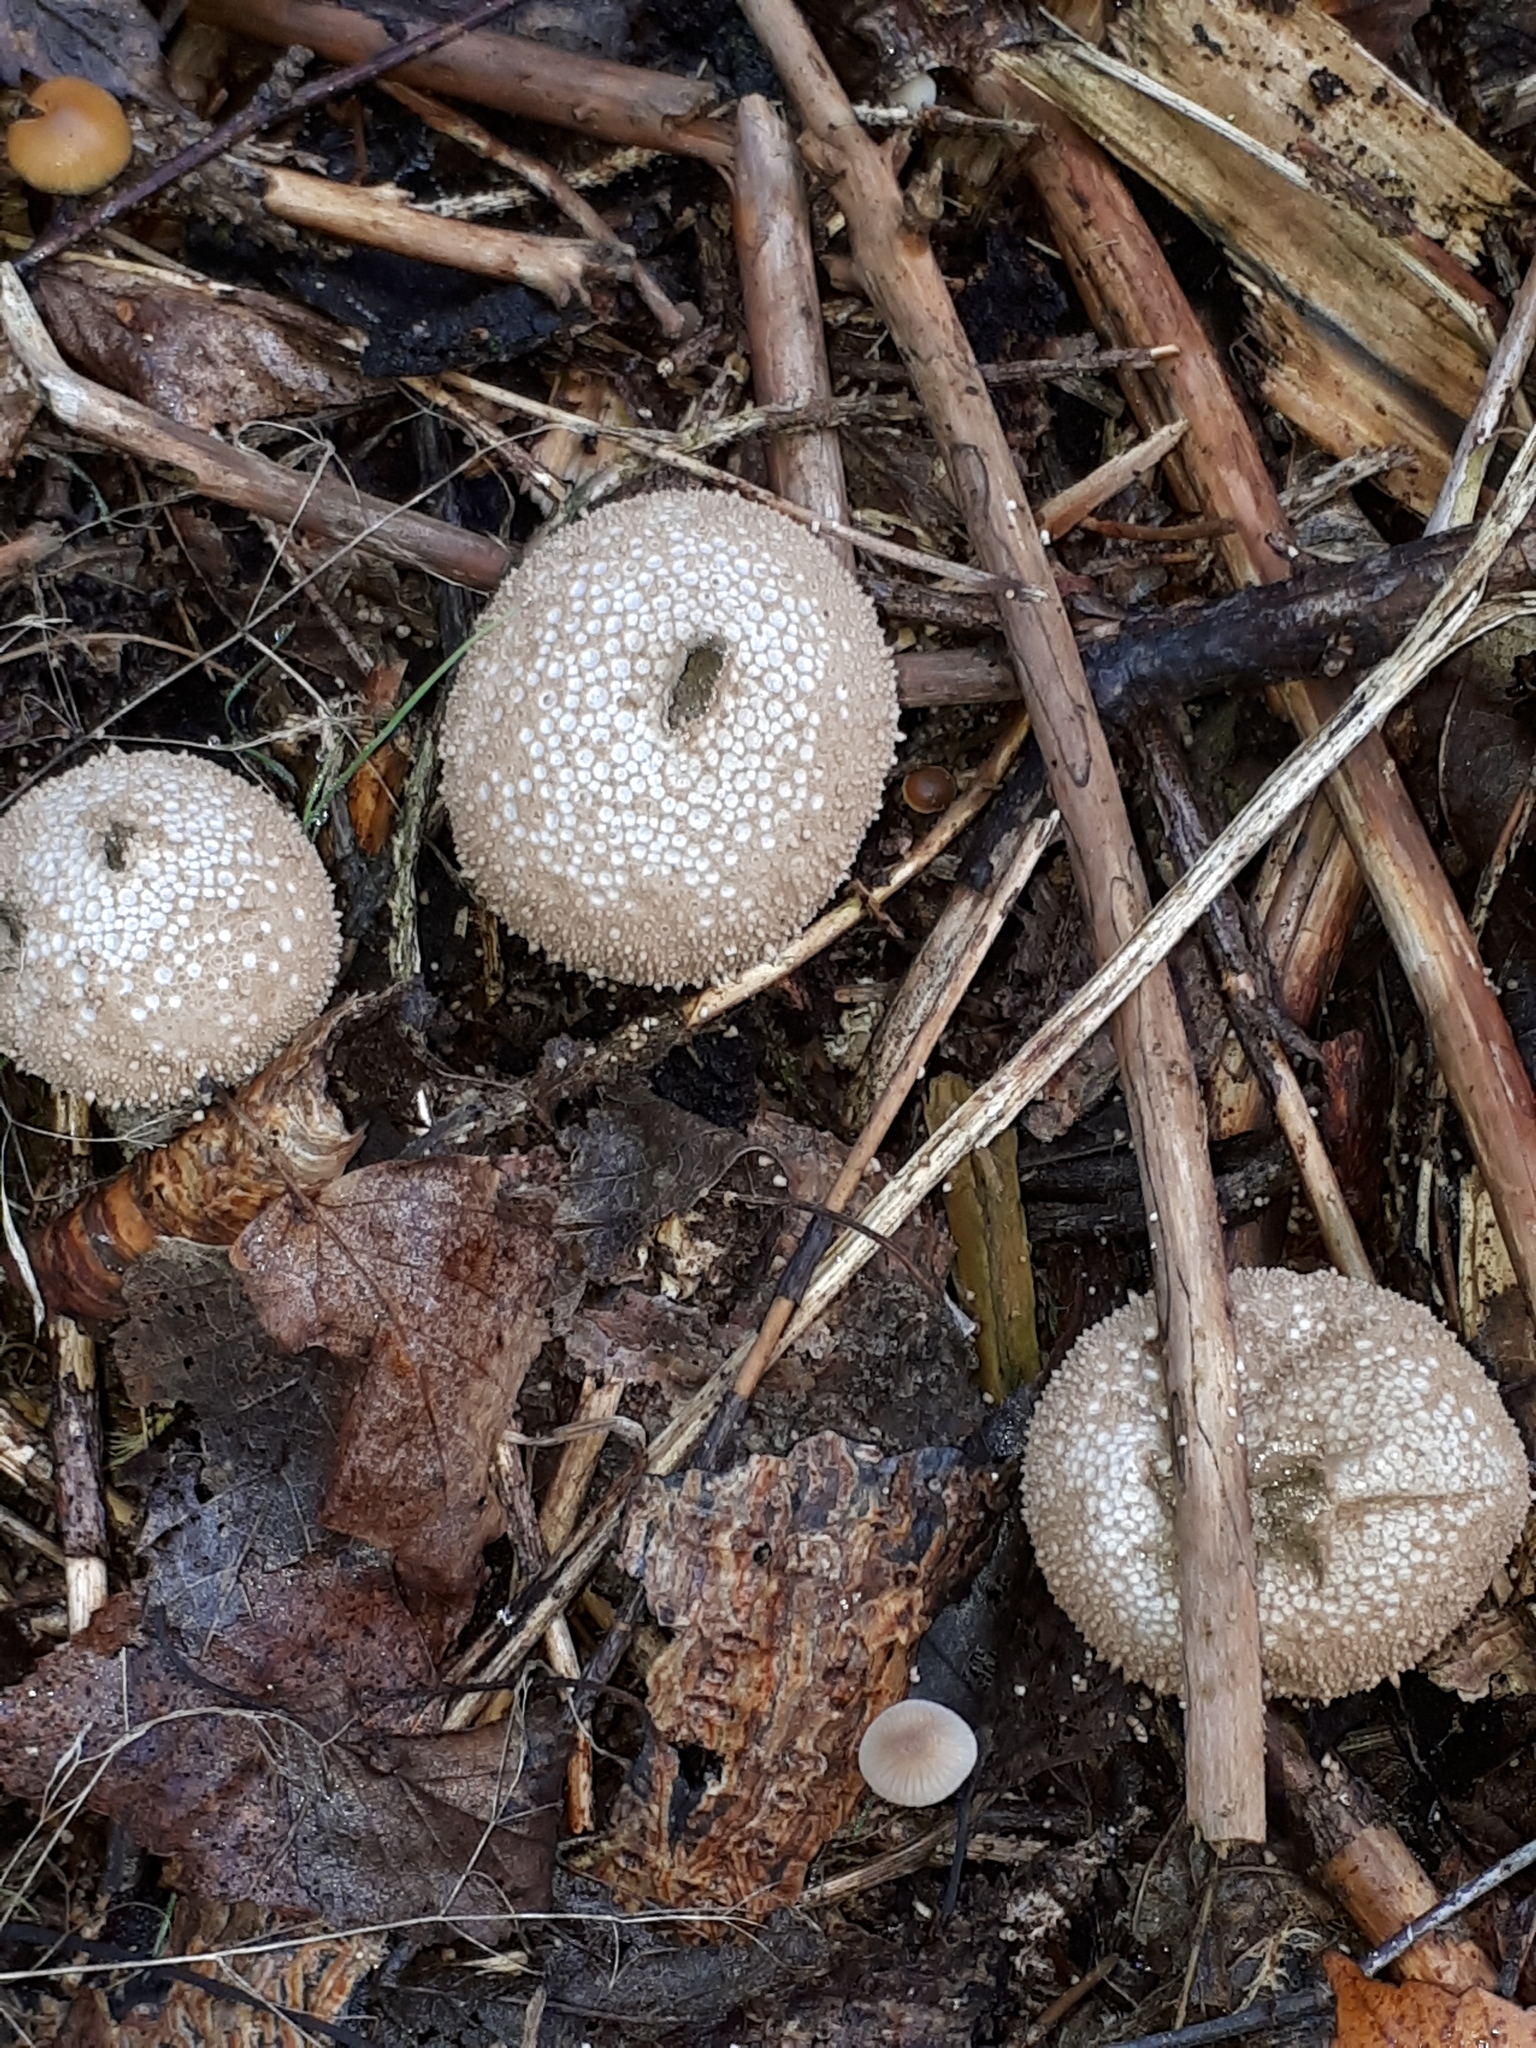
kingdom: Fungi
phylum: Basidiomycota
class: Agaricomycetes
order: Agaricales
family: Lycoperdaceae
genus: Lycoperdon
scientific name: Lycoperdon perlatum
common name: Common puffball
